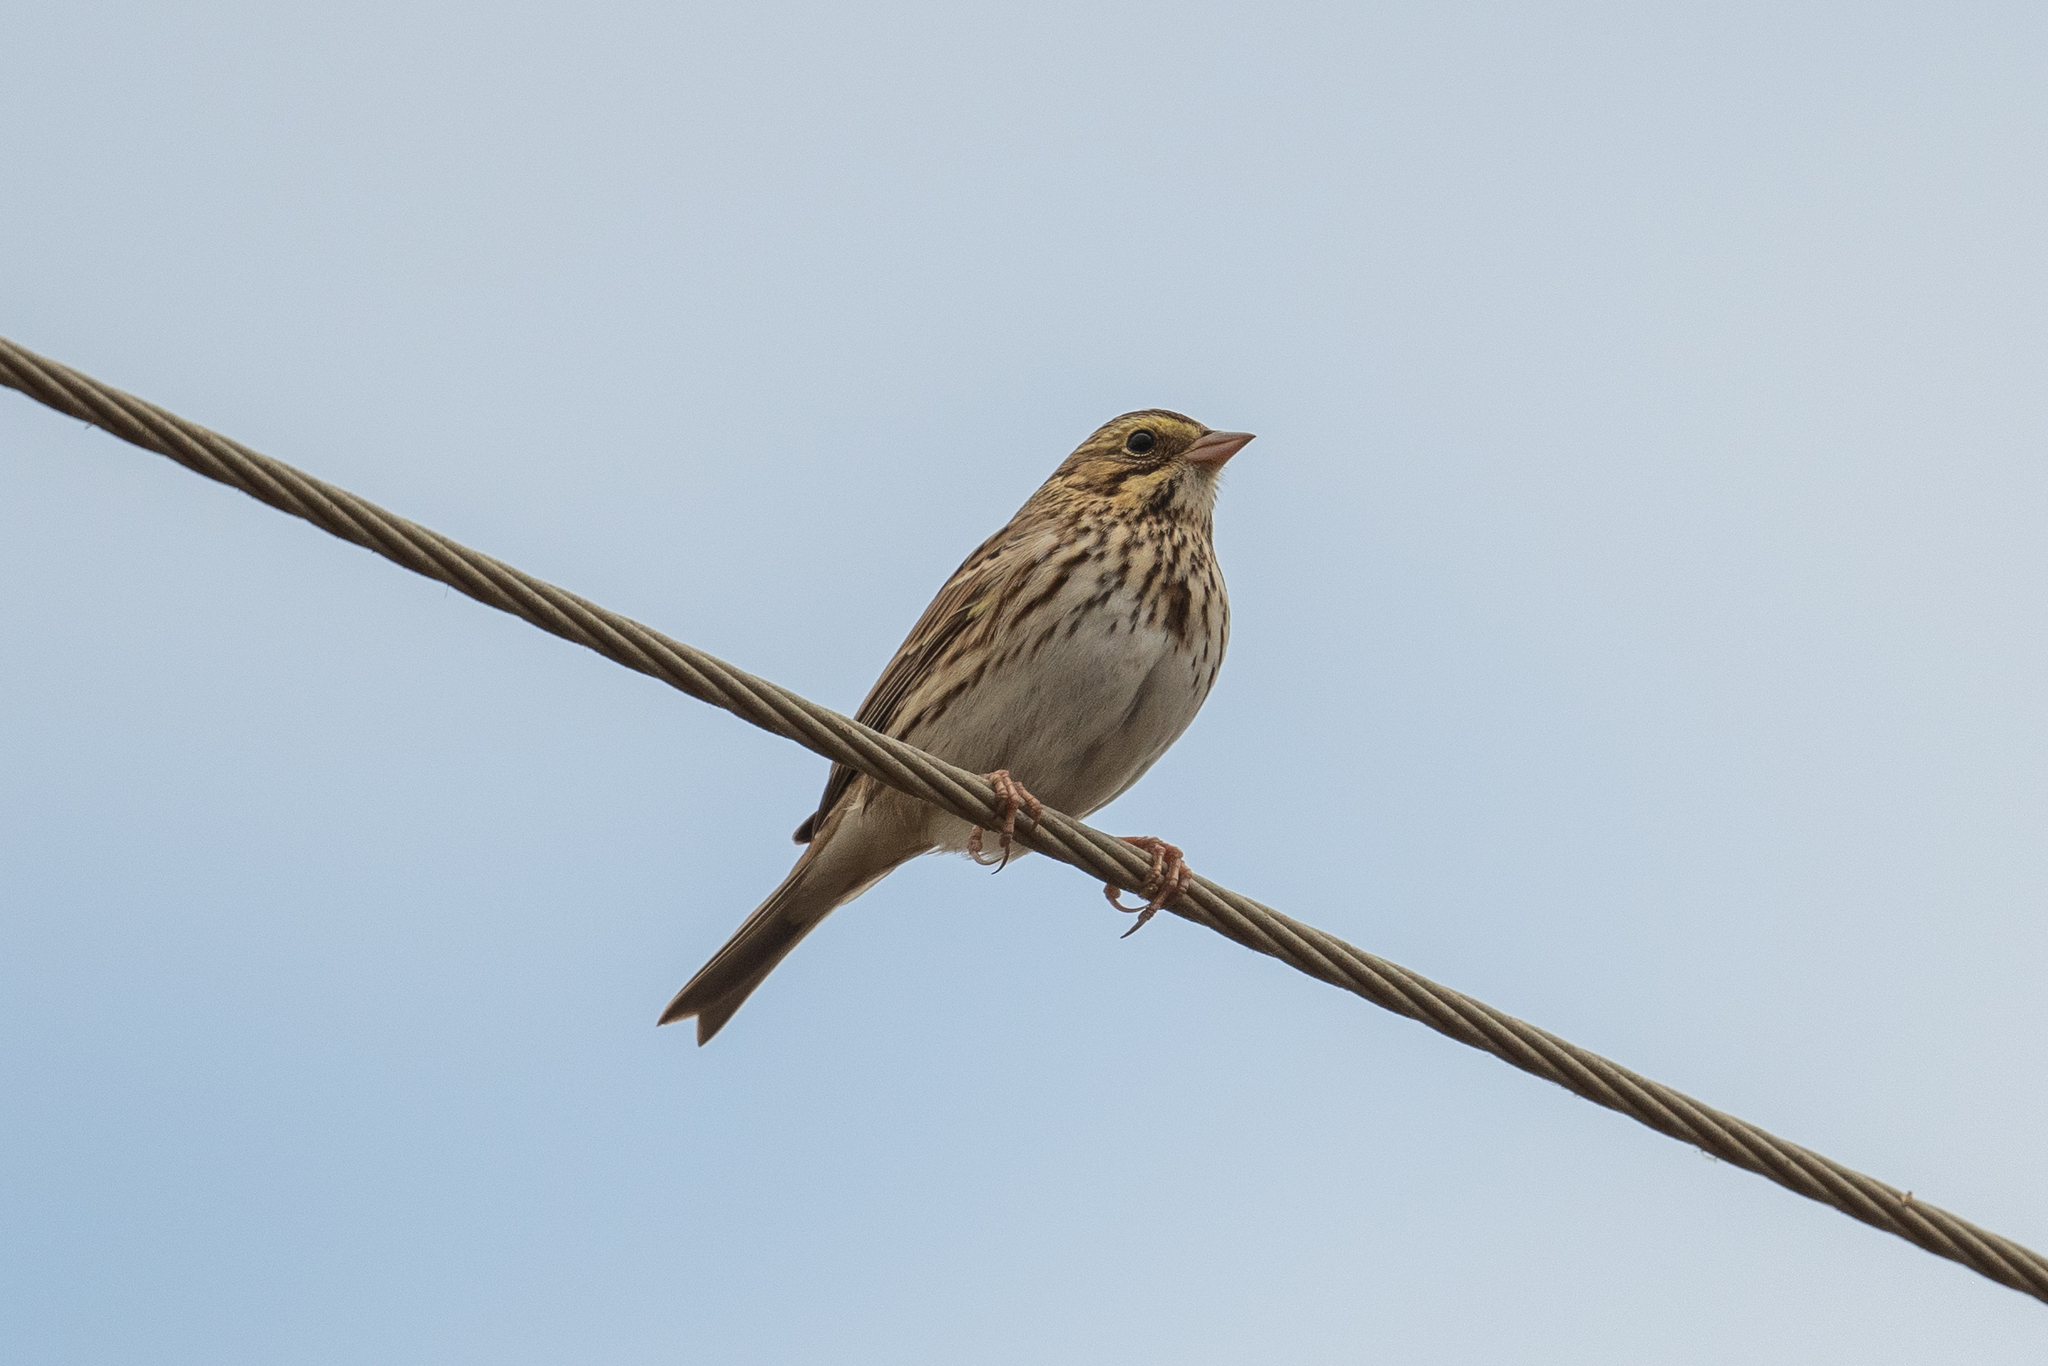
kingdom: Animalia
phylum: Chordata
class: Aves
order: Passeriformes
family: Passerellidae
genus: Passerculus
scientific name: Passerculus sandwichensis
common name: Savannah sparrow
